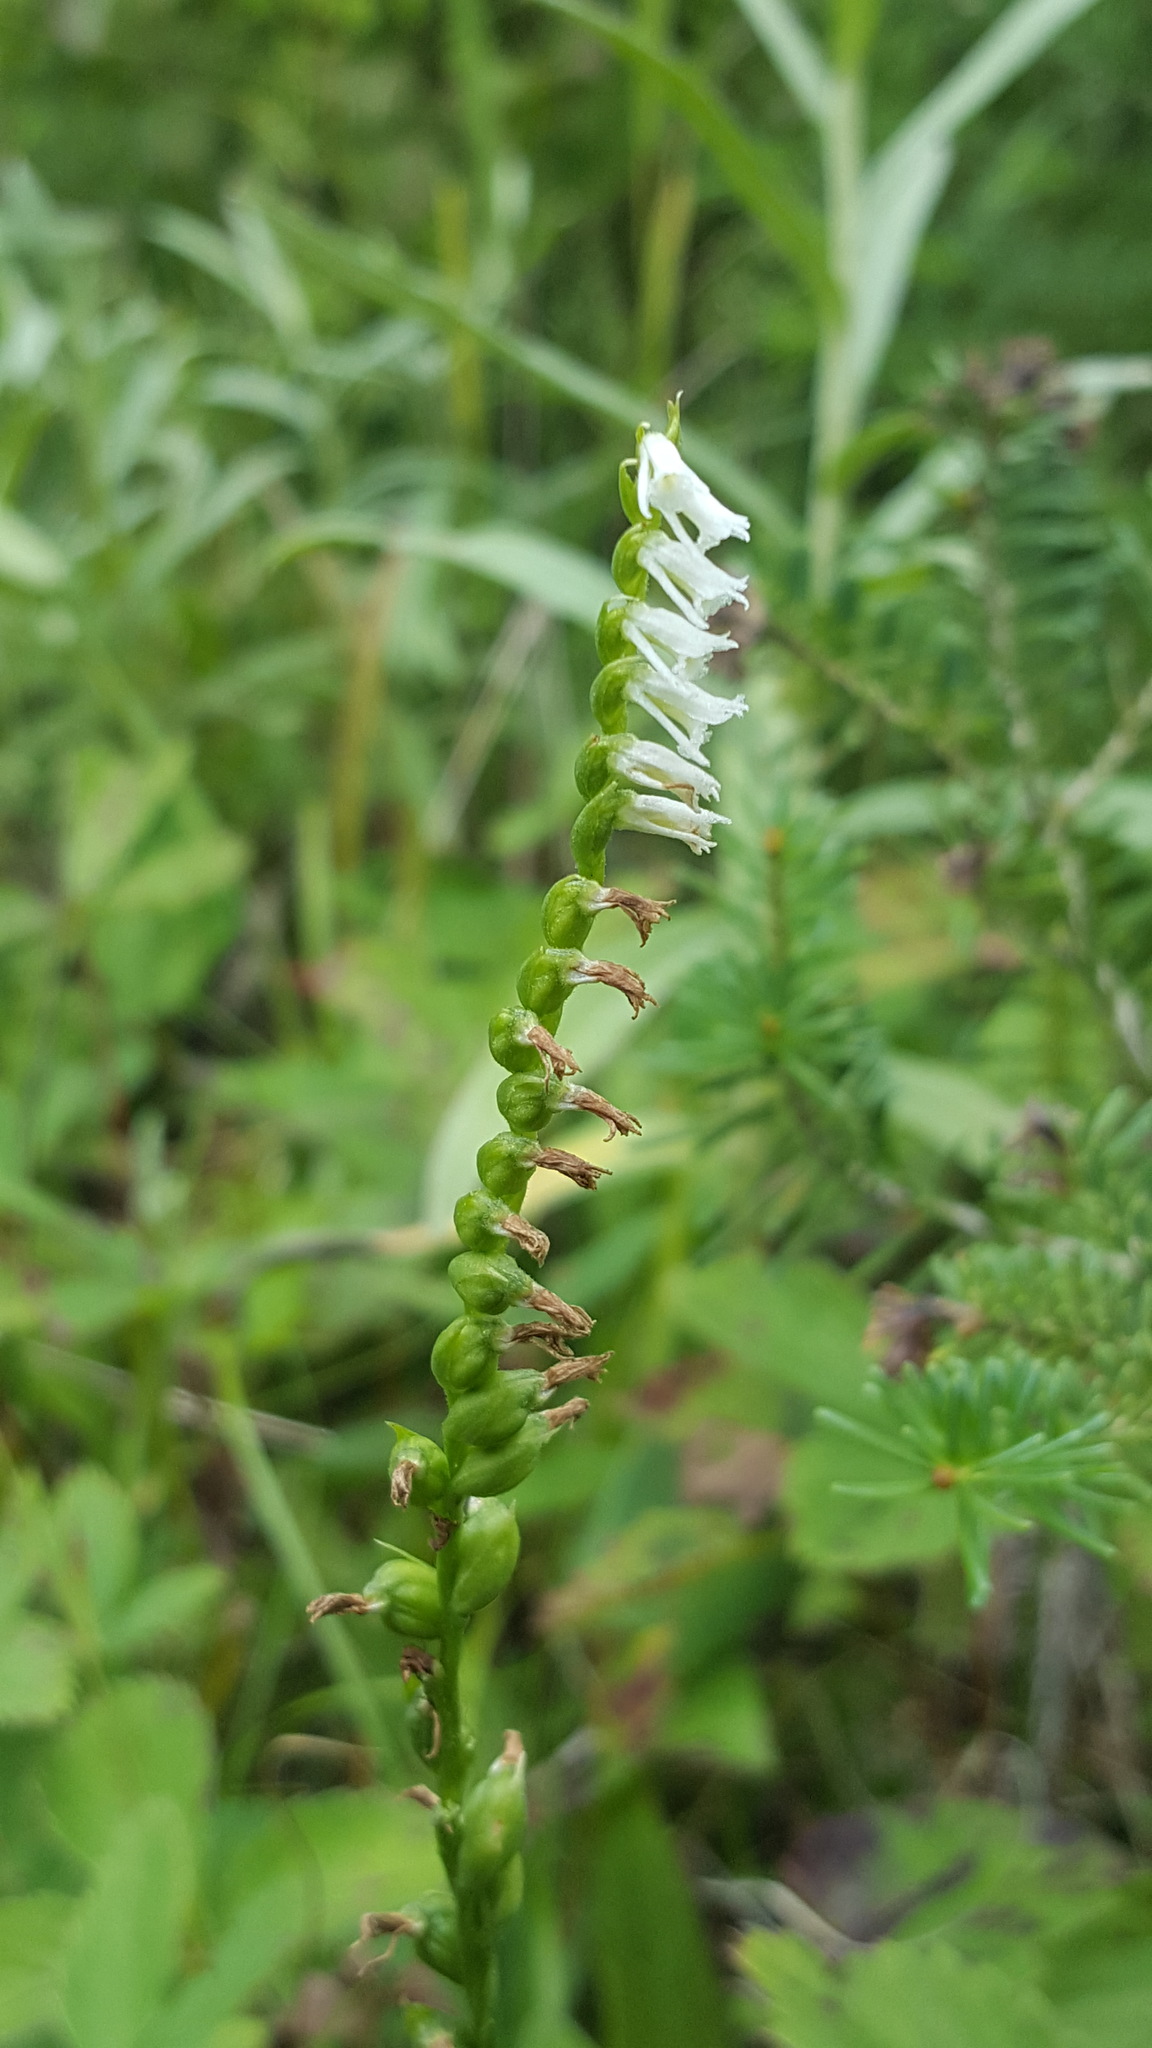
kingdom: Plantae
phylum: Tracheophyta
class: Liliopsida
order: Asparagales
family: Orchidaceae
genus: Spiranthes
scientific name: Spiranthes lacera
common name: Northern slender ladies'-tresses
